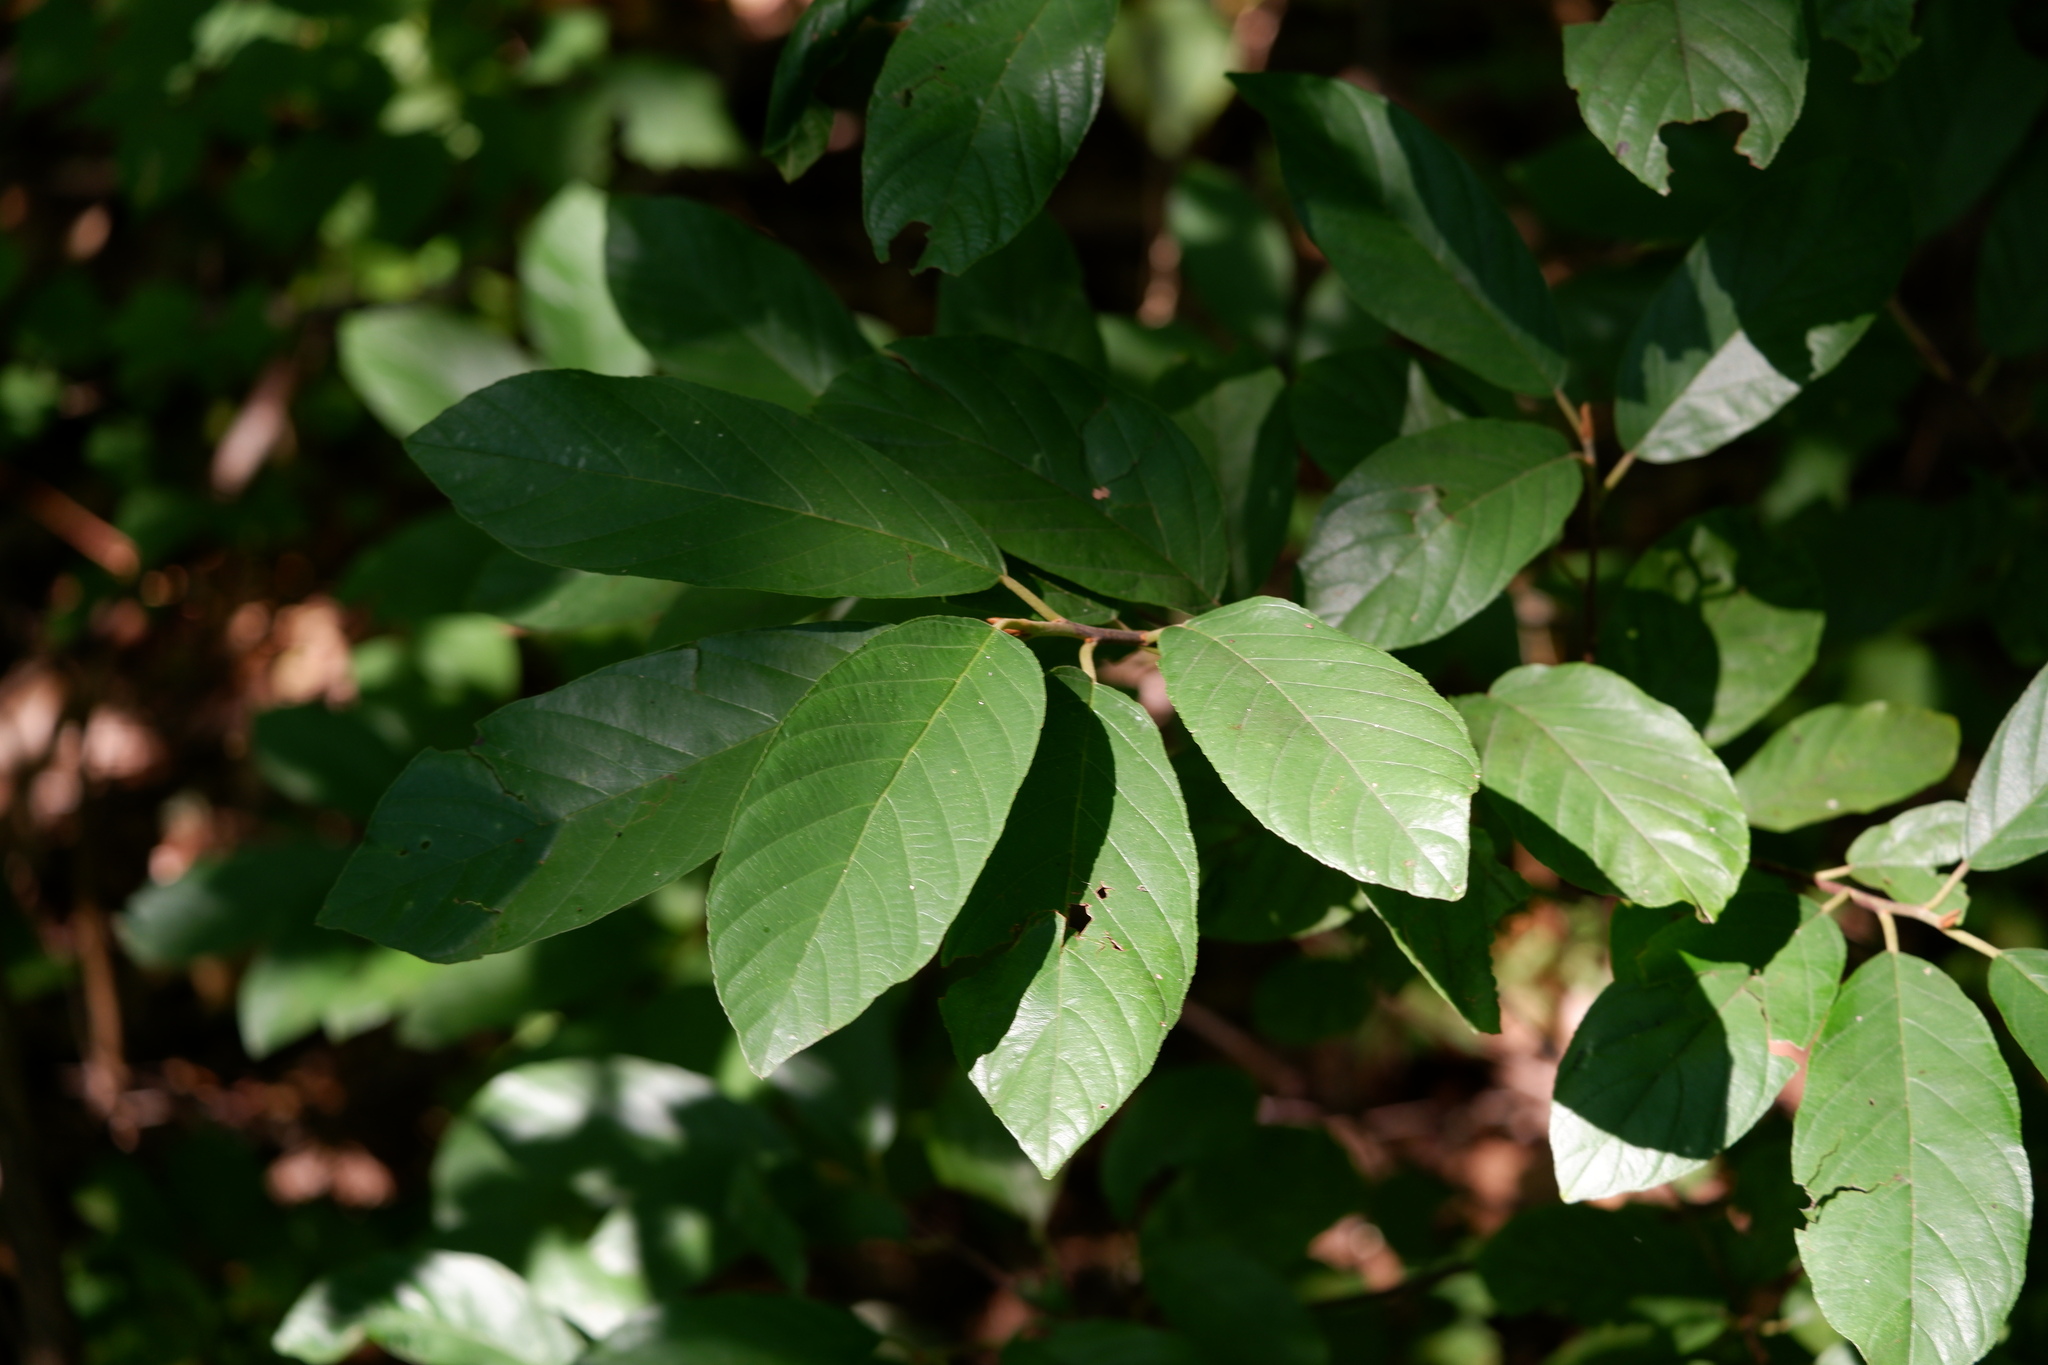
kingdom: Plantae
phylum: Tracheophyta
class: Magnoliopsida
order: Rosales
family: Rhamnaceae
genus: Frangula
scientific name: Frangula caroliniana
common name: Carolina buckthorn
